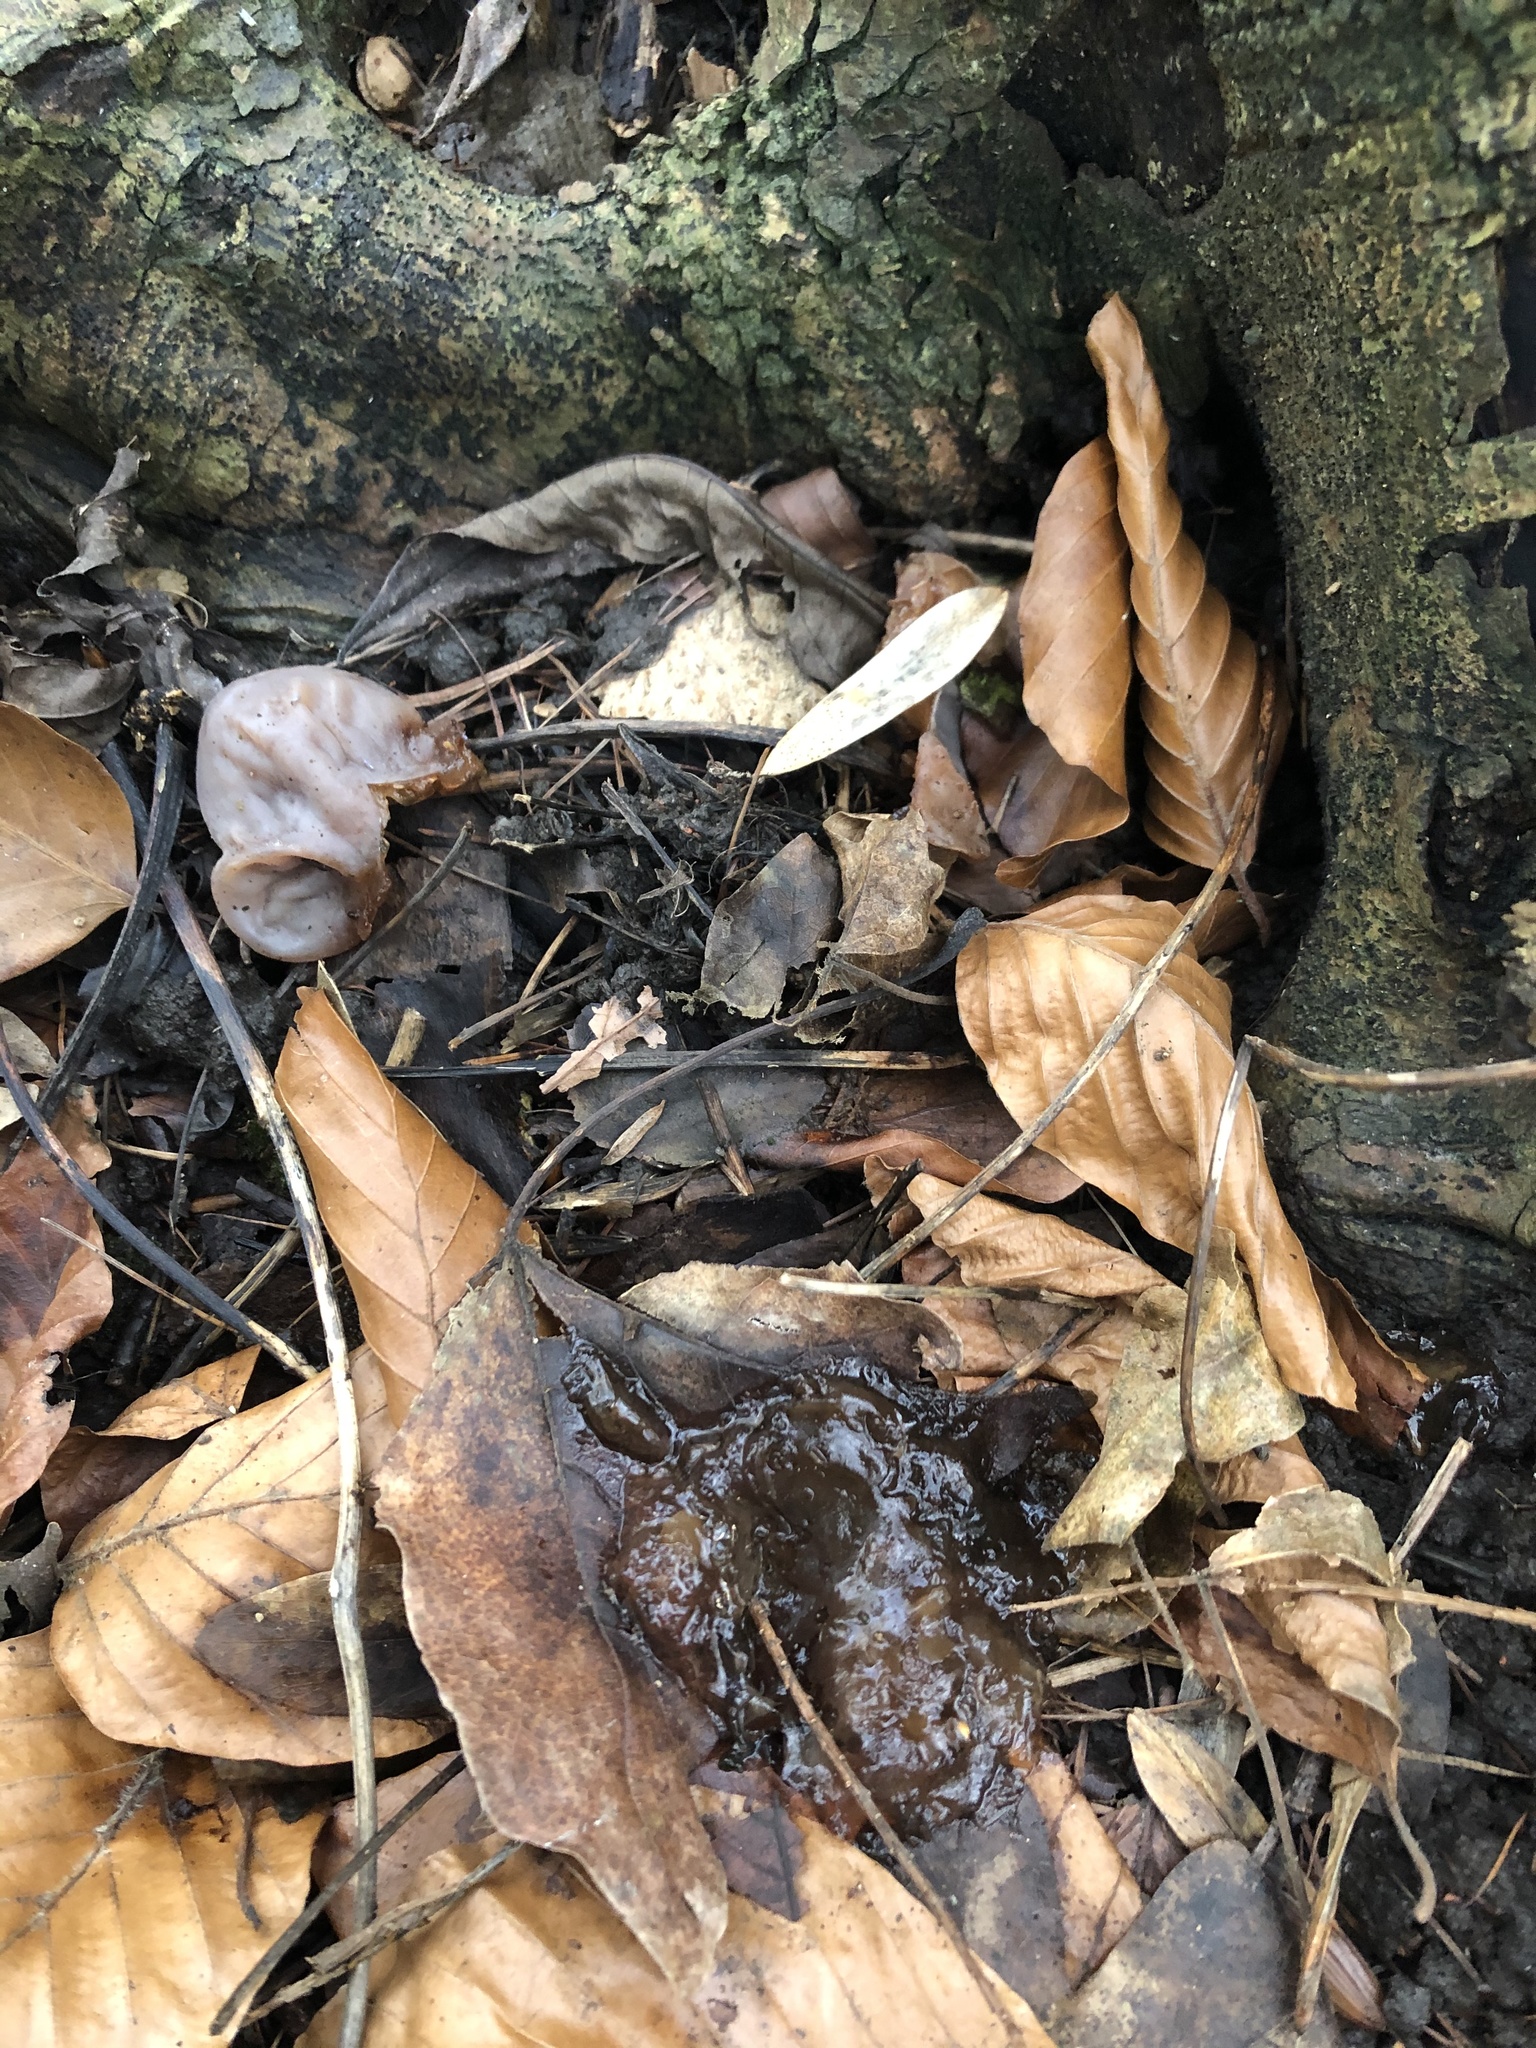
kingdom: Fungi
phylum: Basidiomycota
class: Agaricomycetes
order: Auriculariales
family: Auriculariaceae
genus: Auricularia
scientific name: Auricularia auricula-judae
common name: Jelly ear
